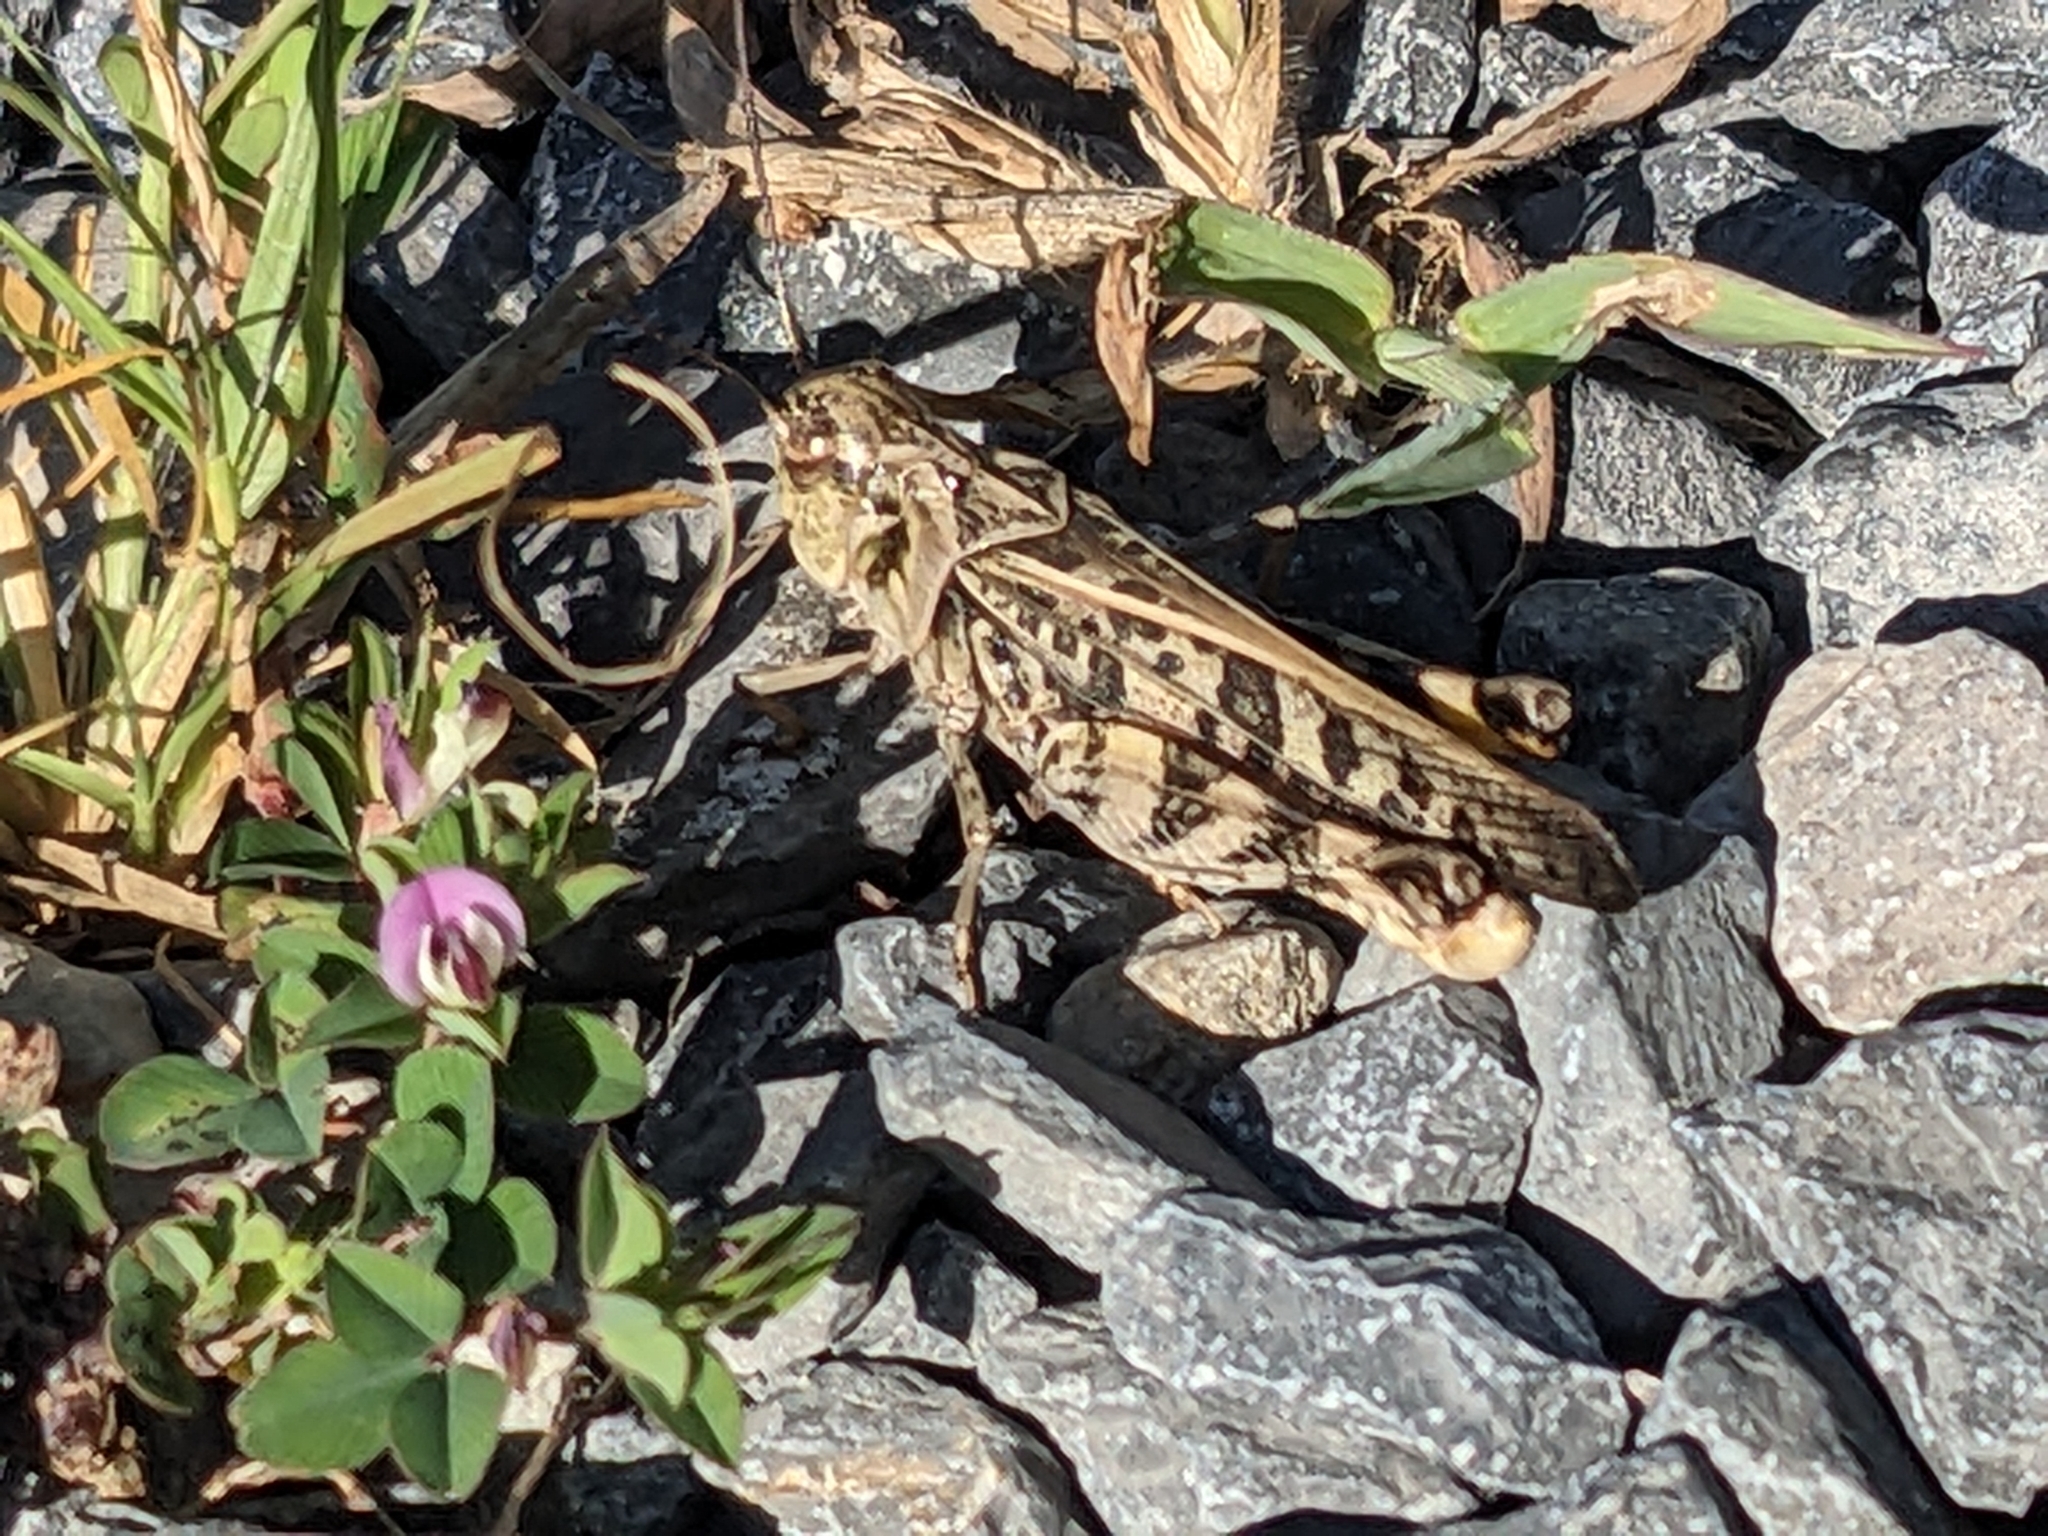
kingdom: Animalia
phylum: Arthropoda
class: Insecta
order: Orthoptera
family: Acrididae
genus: Hippiscus
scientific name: Hippiscus ocelote
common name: Wrinkled grasshopper
